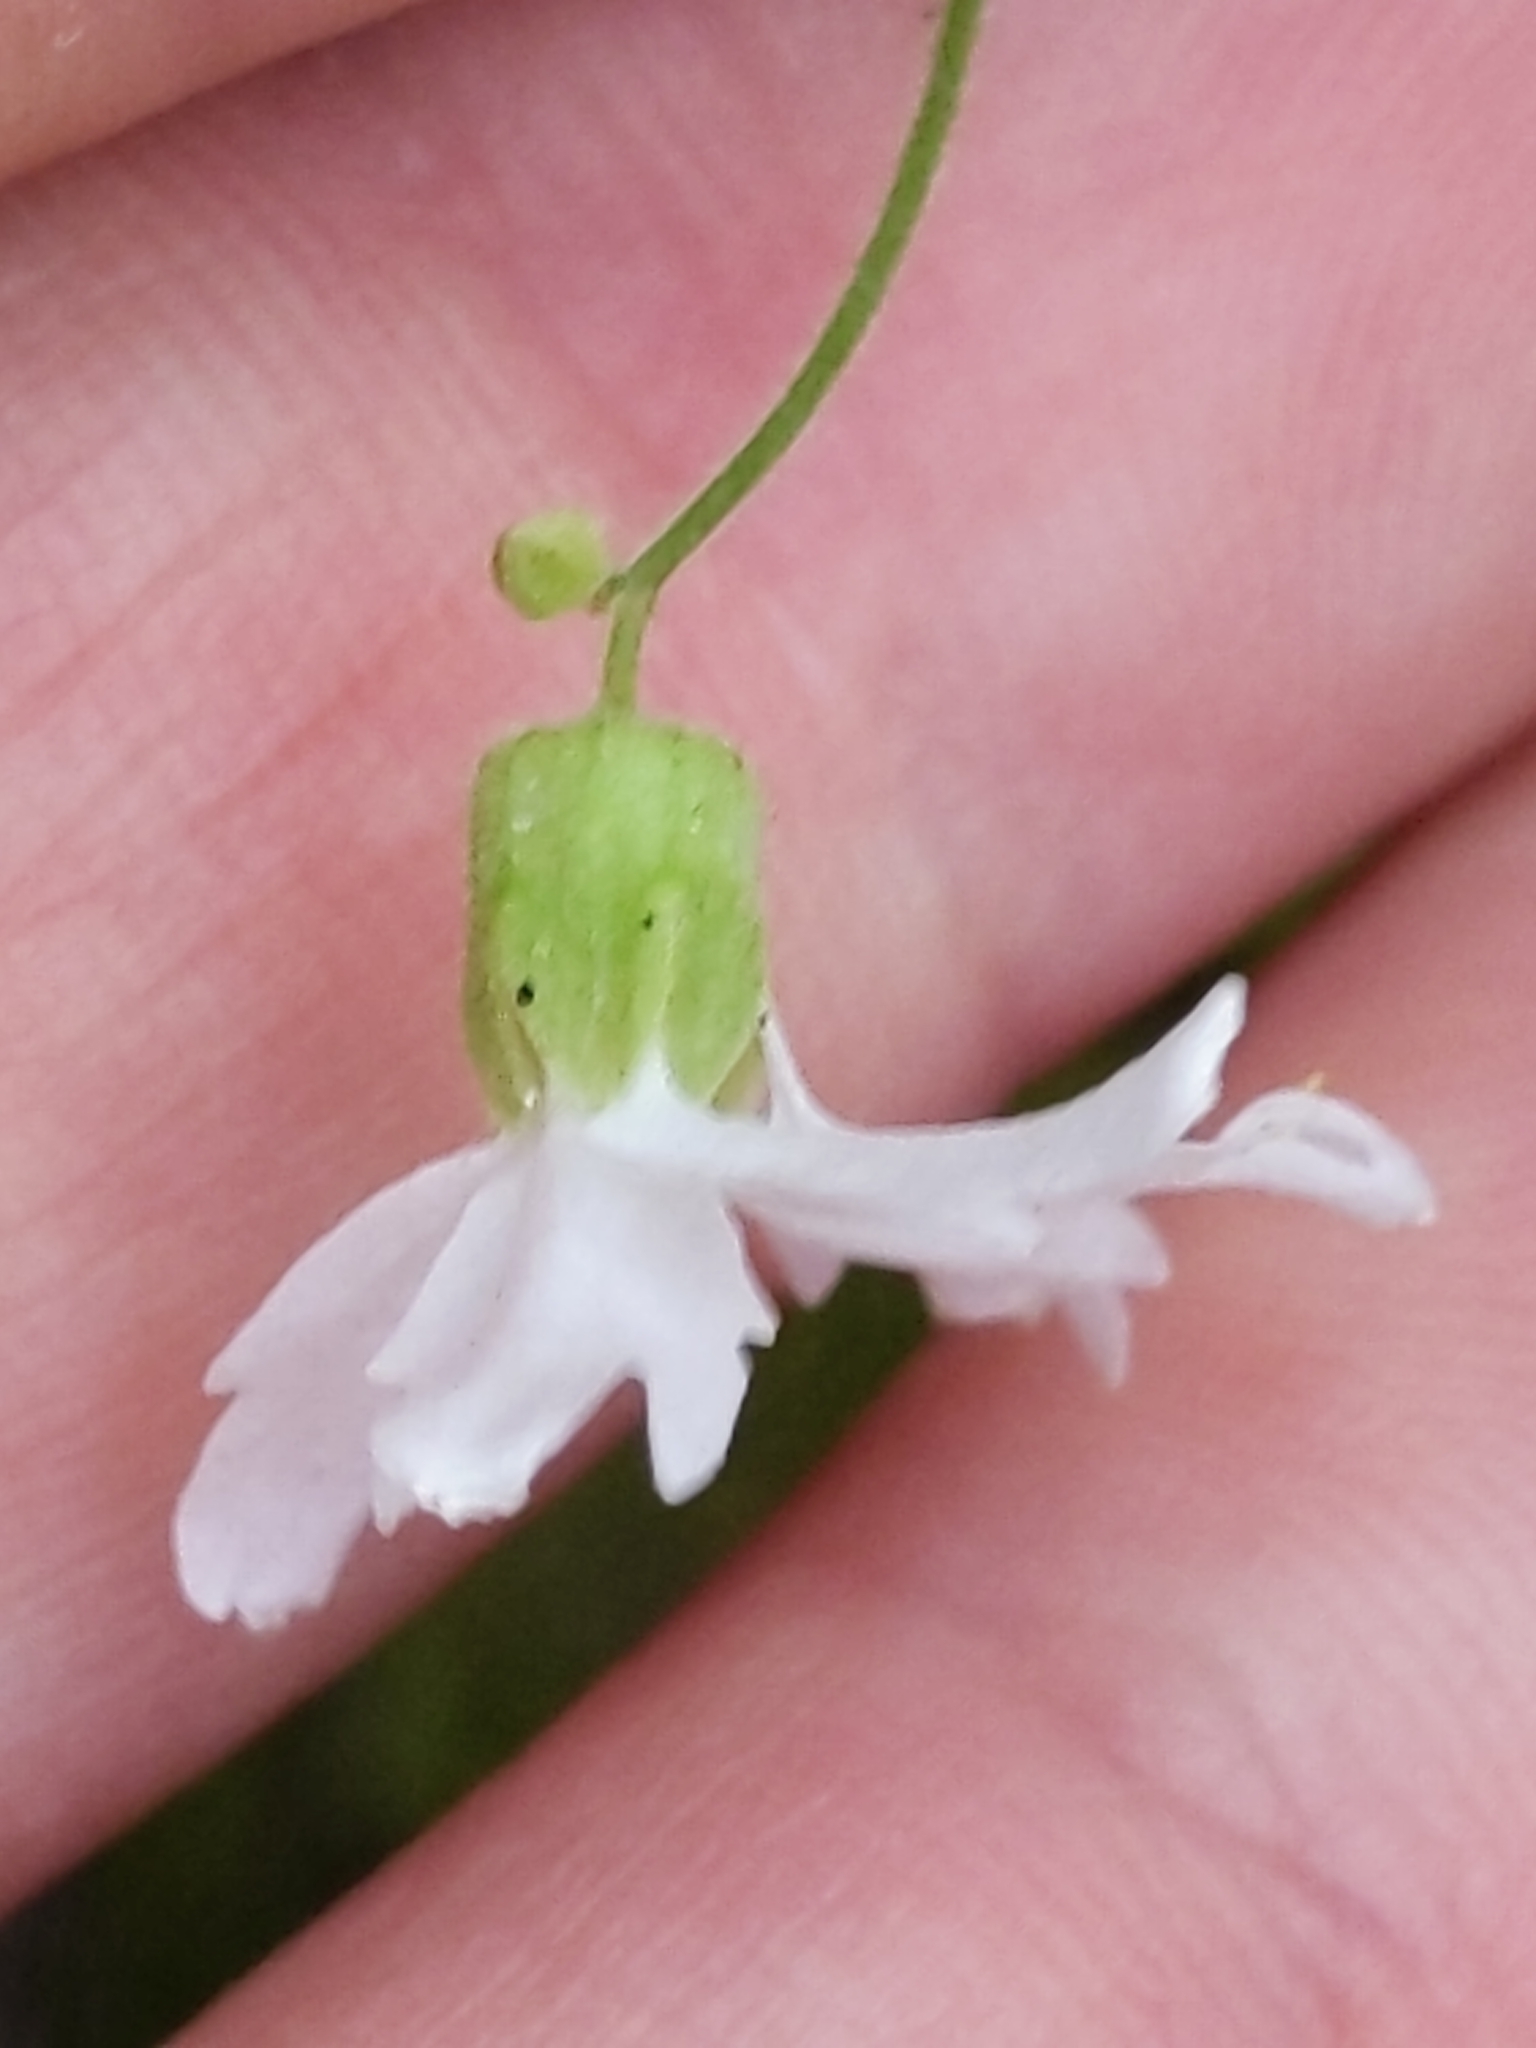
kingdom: Plantae
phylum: Tracheophyta
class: Magnoliopsida
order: Saxifragales
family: Saxifragaceae
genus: Lithophragma
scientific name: Lithophragma heterophyllum
